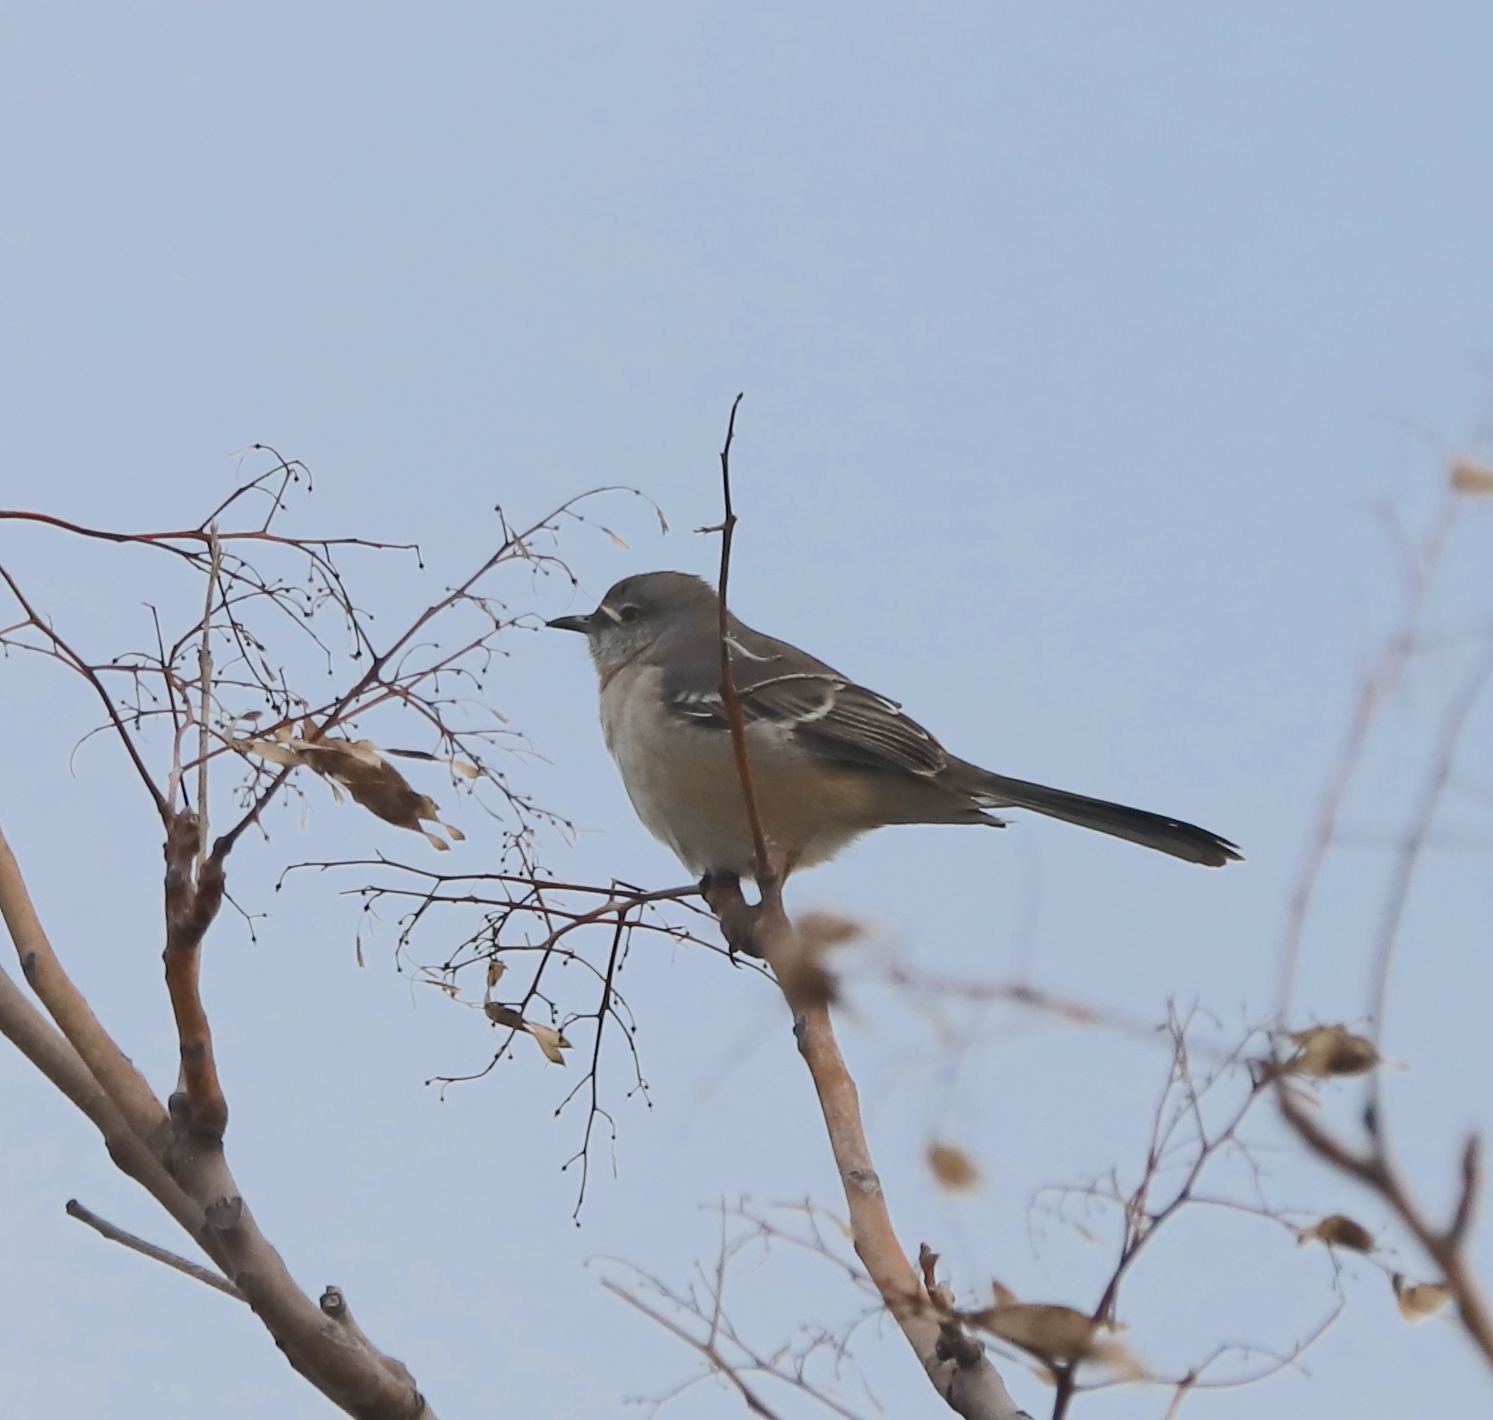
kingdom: Animalia
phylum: Chordata
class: Aves
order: Passeriformes
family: Mimidae
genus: Mimus
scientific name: Mimus polyglottos
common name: Northern mockingbird
